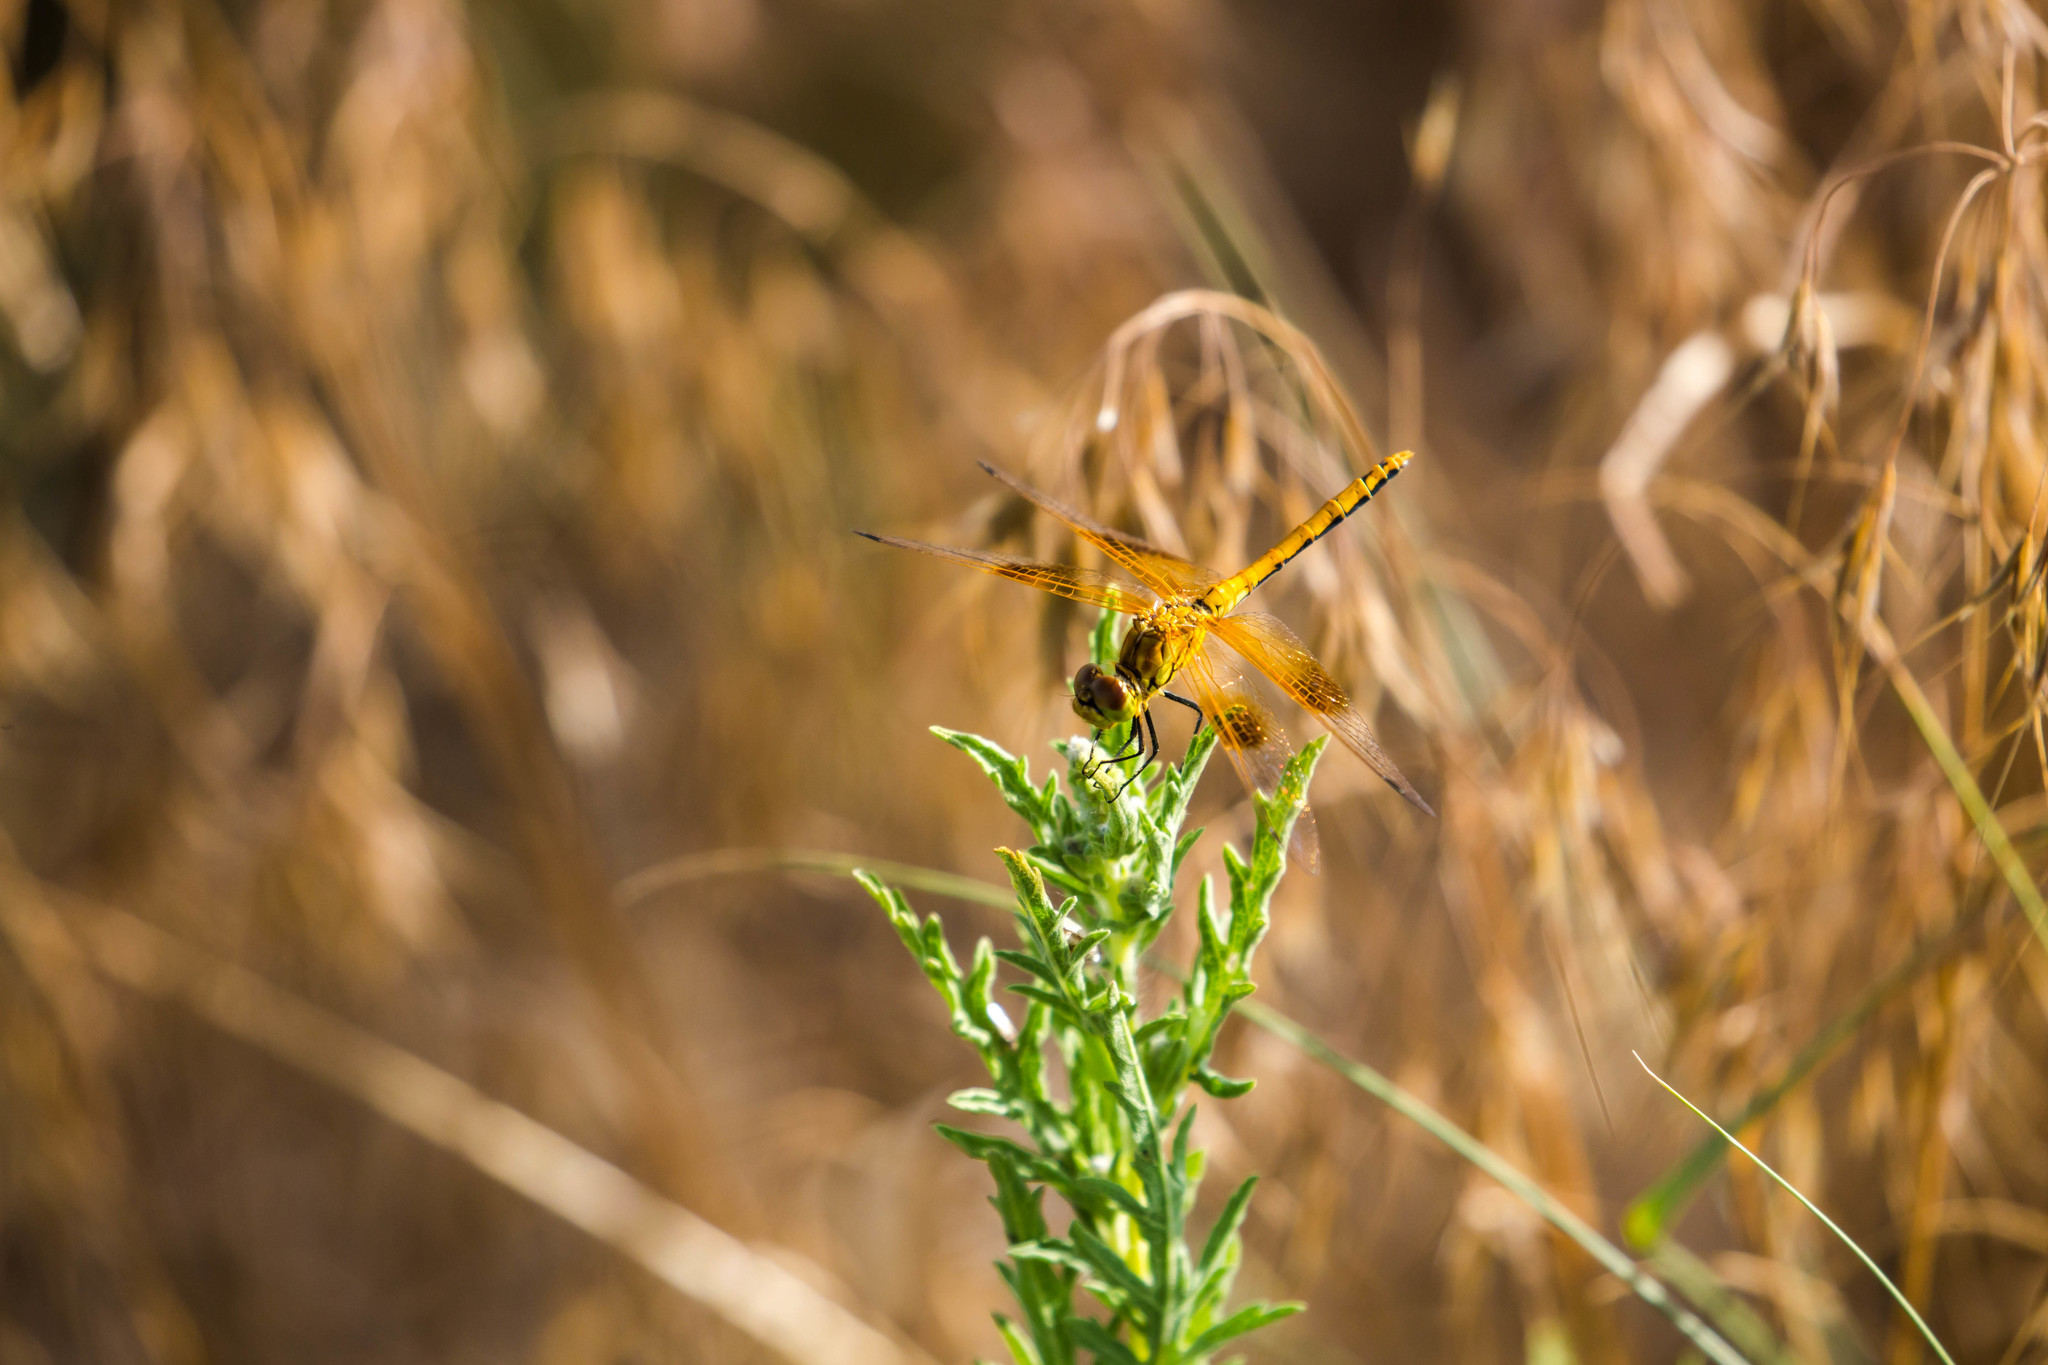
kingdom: Animalia
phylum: Arthropoda
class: Insecta
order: Odonata
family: Libellulidae
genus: Sympetrum
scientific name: Sympetrum semicinctum
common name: Band-winged meadowhawk
